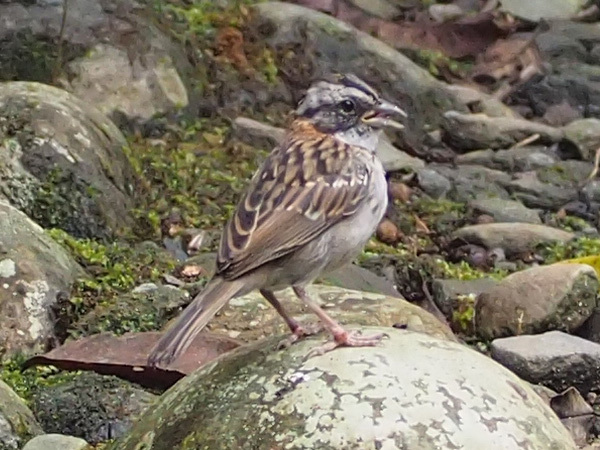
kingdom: Animalia
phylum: Chordata
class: Aves
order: Passeriformes
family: Passerellidae
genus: Zonotrichia
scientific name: Zonotrichia capensis
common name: Rufous-collared sparrow
